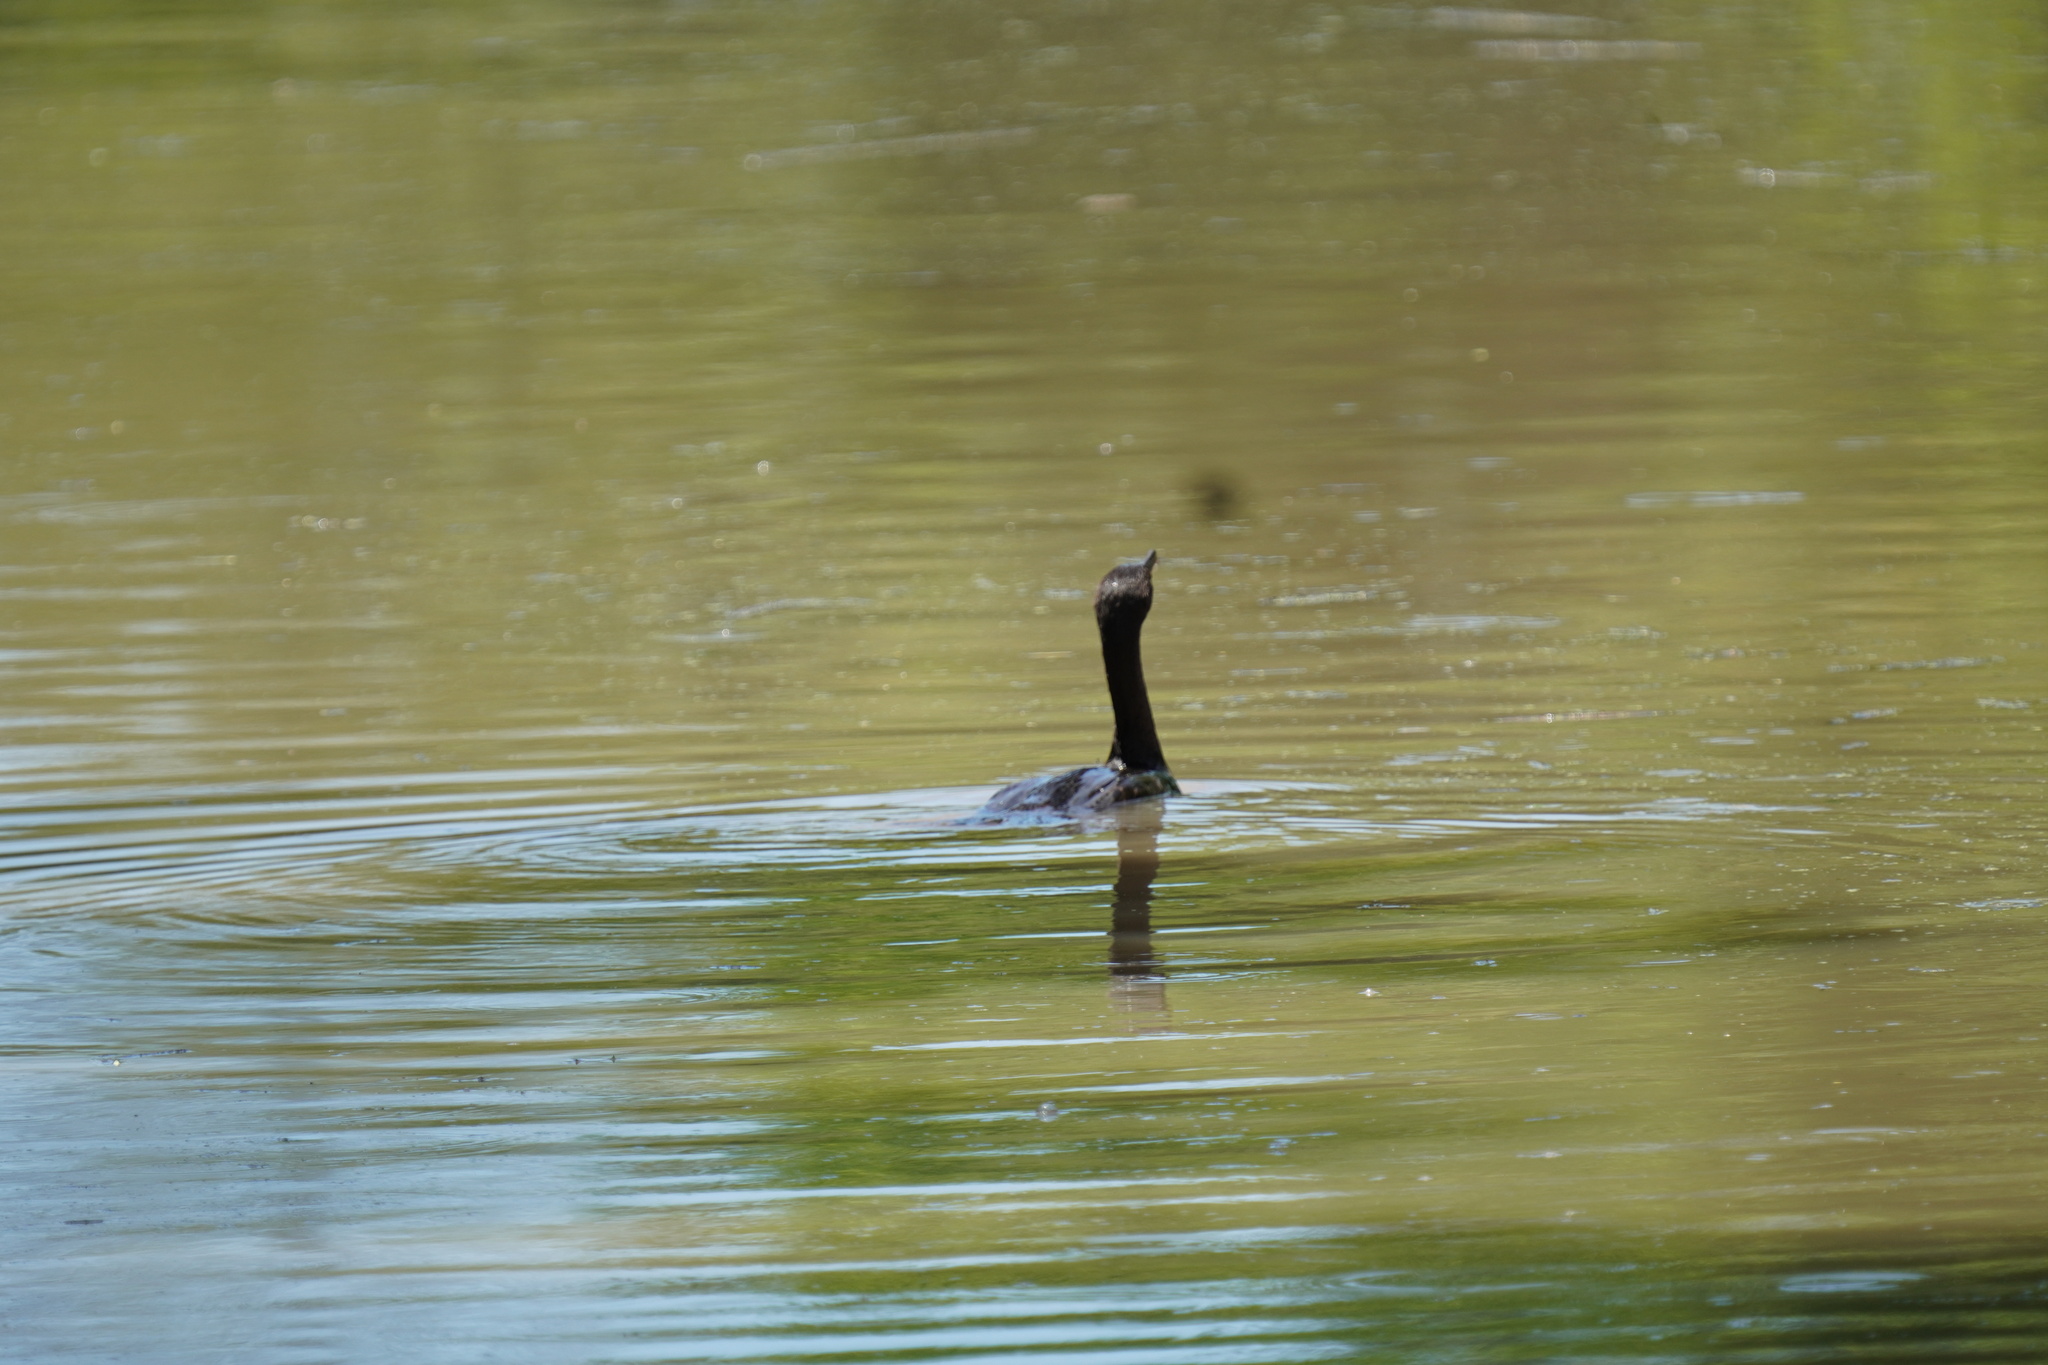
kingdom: Animalia
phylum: Chordata
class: Aves
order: Suliformes
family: Phalacrocoracidae
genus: Phalacrocorax
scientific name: Phalacrocorax brasilianus
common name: Neotropic cormorant
